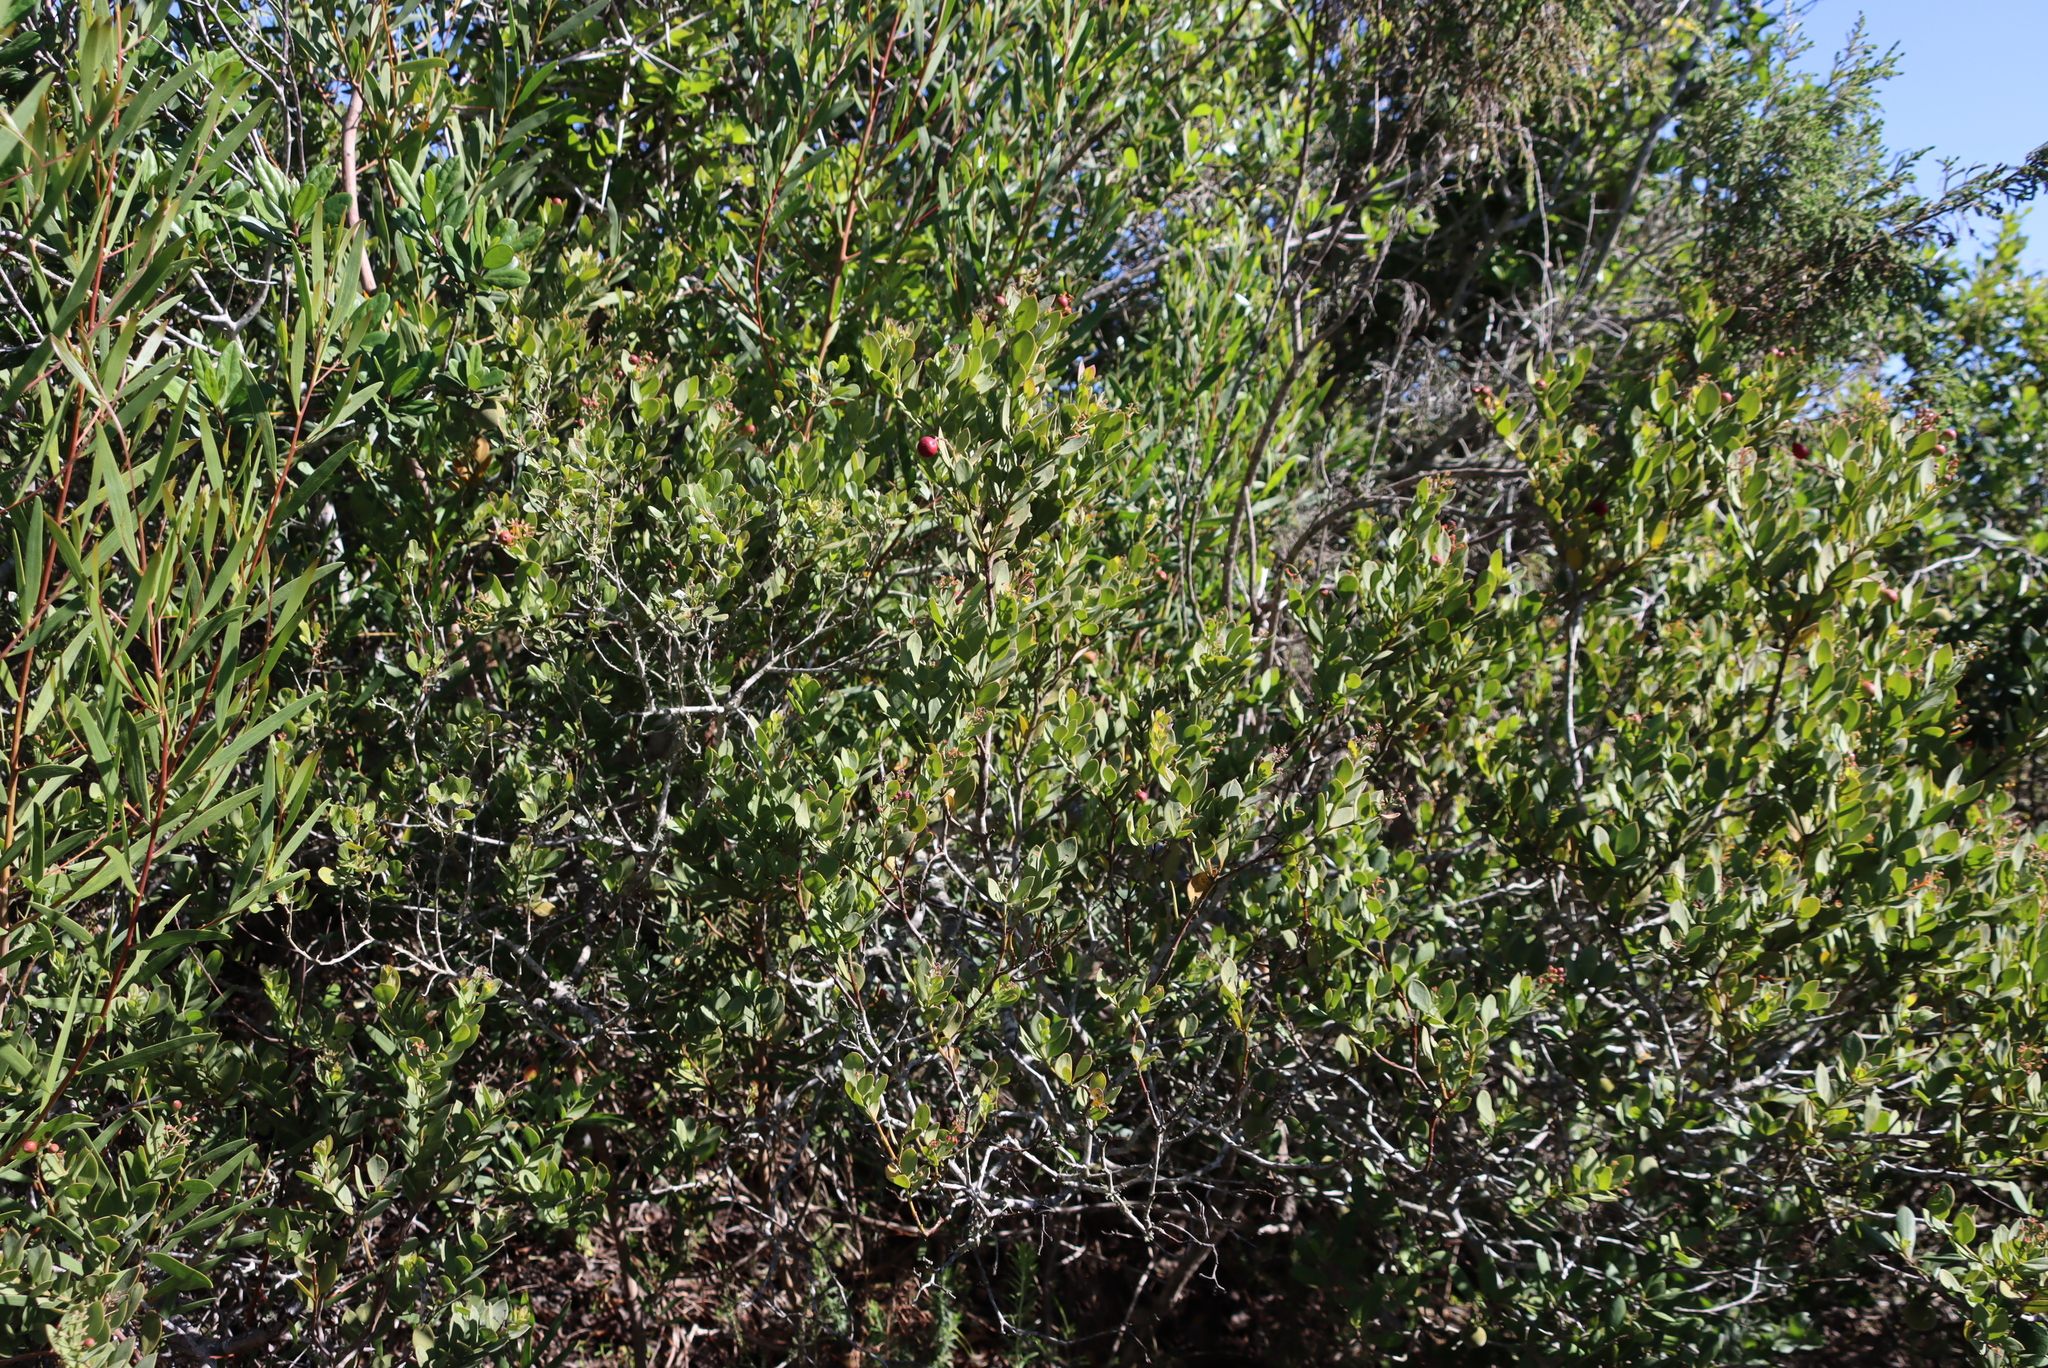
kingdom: Plantae
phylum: Tracheophyta
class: Magnoliopsida
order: Santalales
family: Santalaceae
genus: Osyris
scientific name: Osyris compressa
